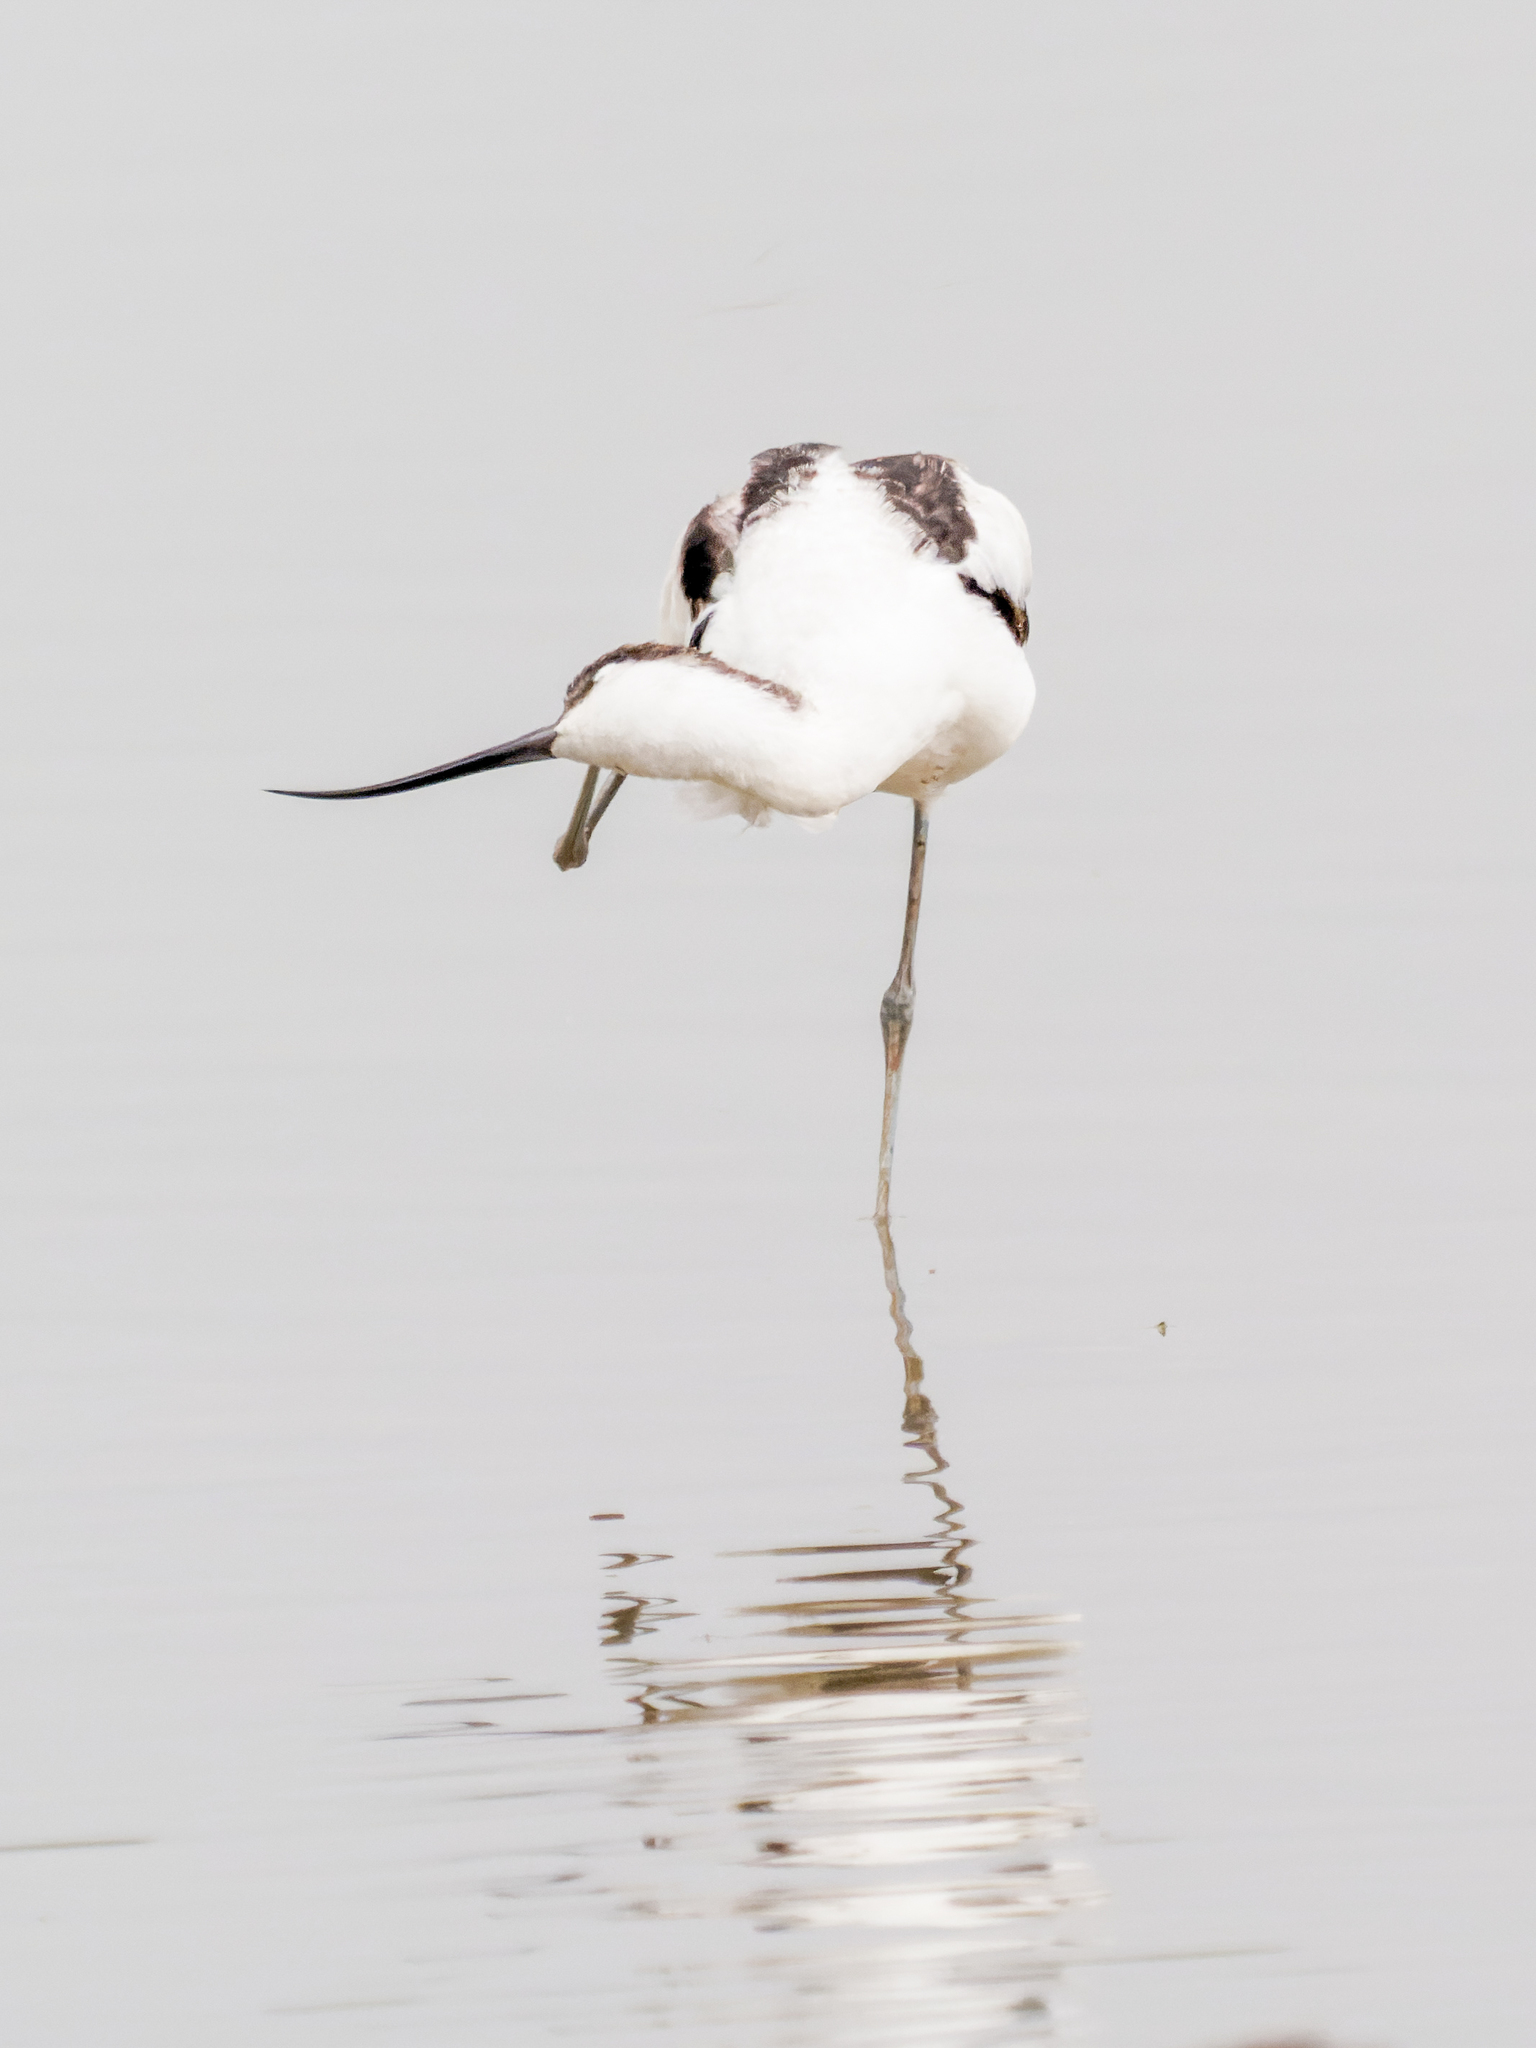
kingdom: Animalia
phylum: Chordata
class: Aves
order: Charadriiformes
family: Recurvirostridae
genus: Recurvirostra
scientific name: Recurvirostra avosetta
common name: Pied avocet
